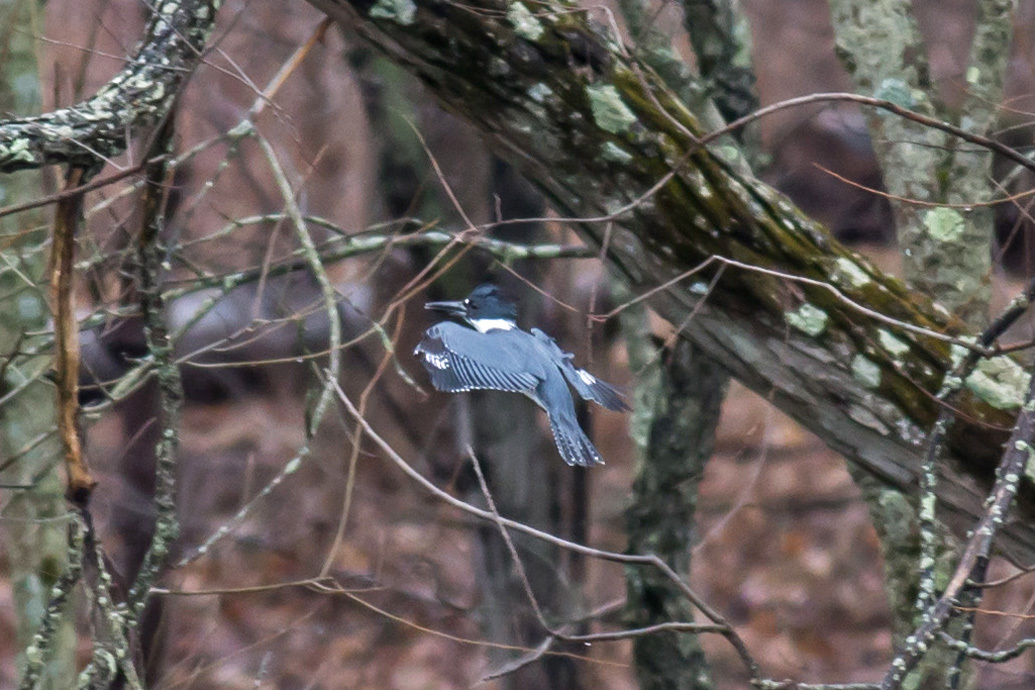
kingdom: Animalia
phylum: Chordata
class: Aves
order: Coraciiformes
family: Alcedinidae
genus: Megaceryle
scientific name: Megaceryle alcyon
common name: Belted kingfisher
